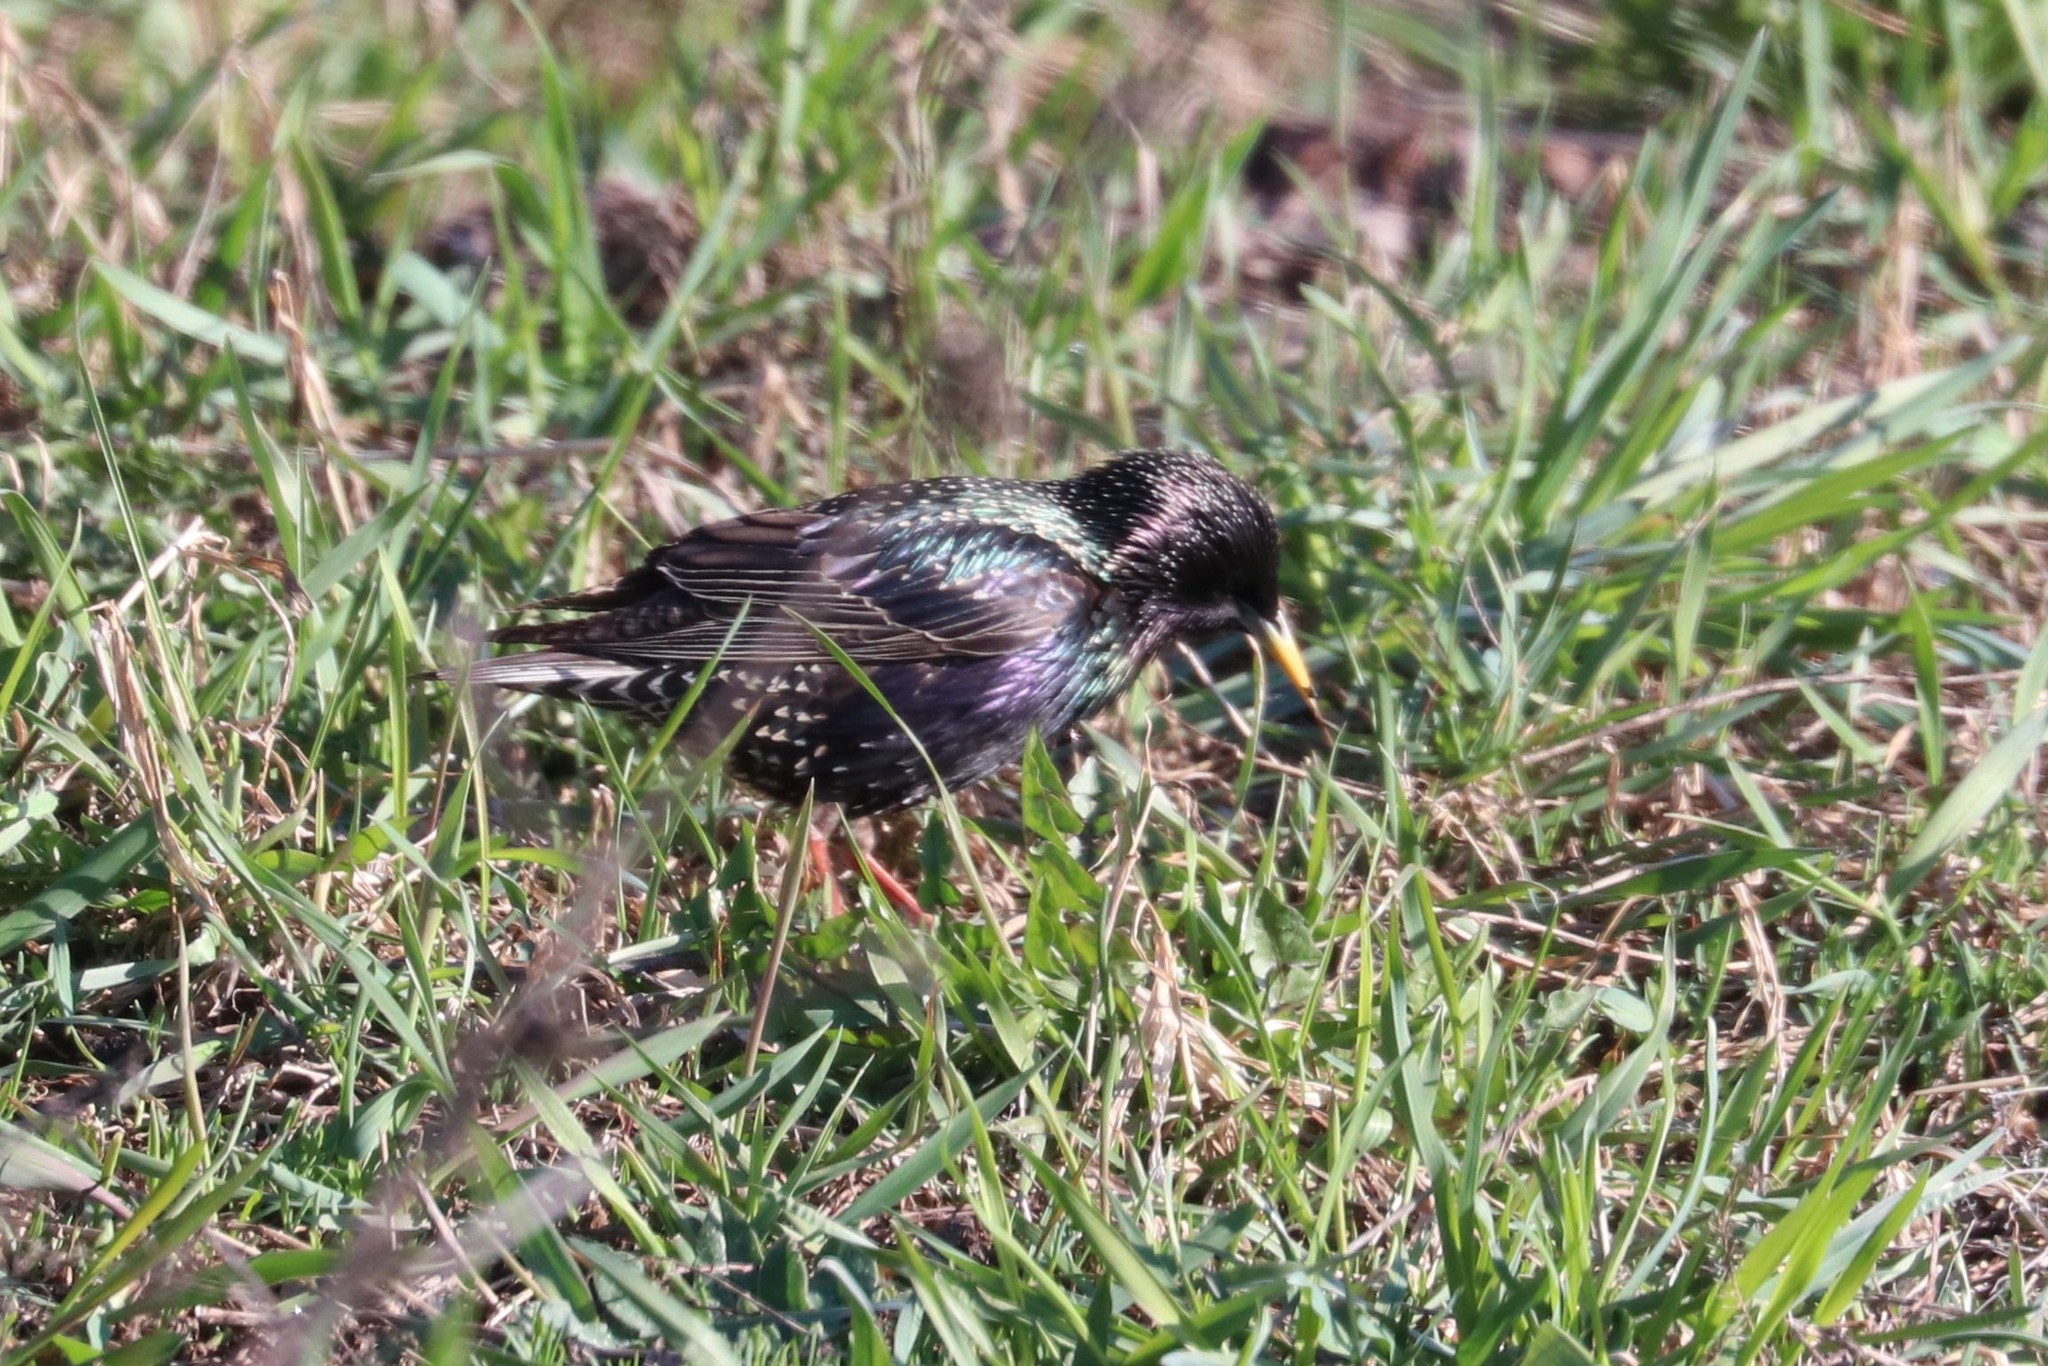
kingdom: Animalia
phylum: Chordata
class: Aves
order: Passeriformes
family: Sturnidae
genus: Sturnus
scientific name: Sturnus vulgaris
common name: Common starling
